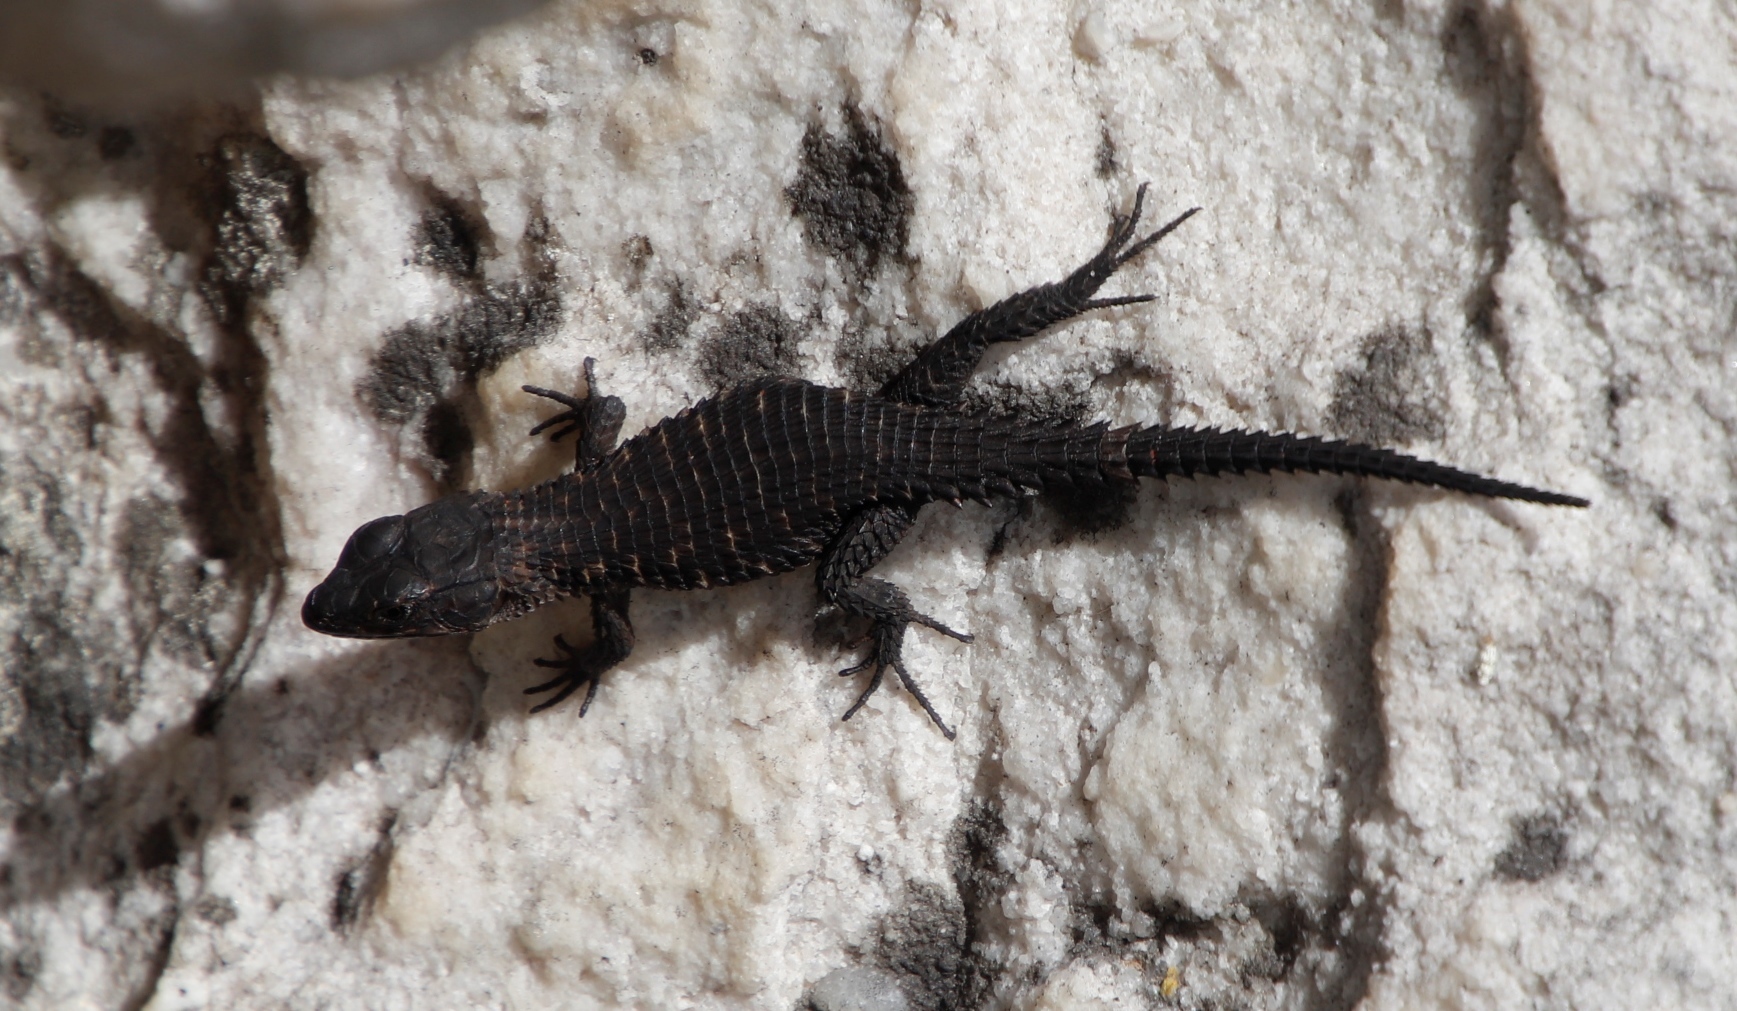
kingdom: Animalia
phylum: Chordata
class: Squamata
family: Cordylidae
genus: Cordylus
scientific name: Cordylus niger
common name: Black girdled lizard
